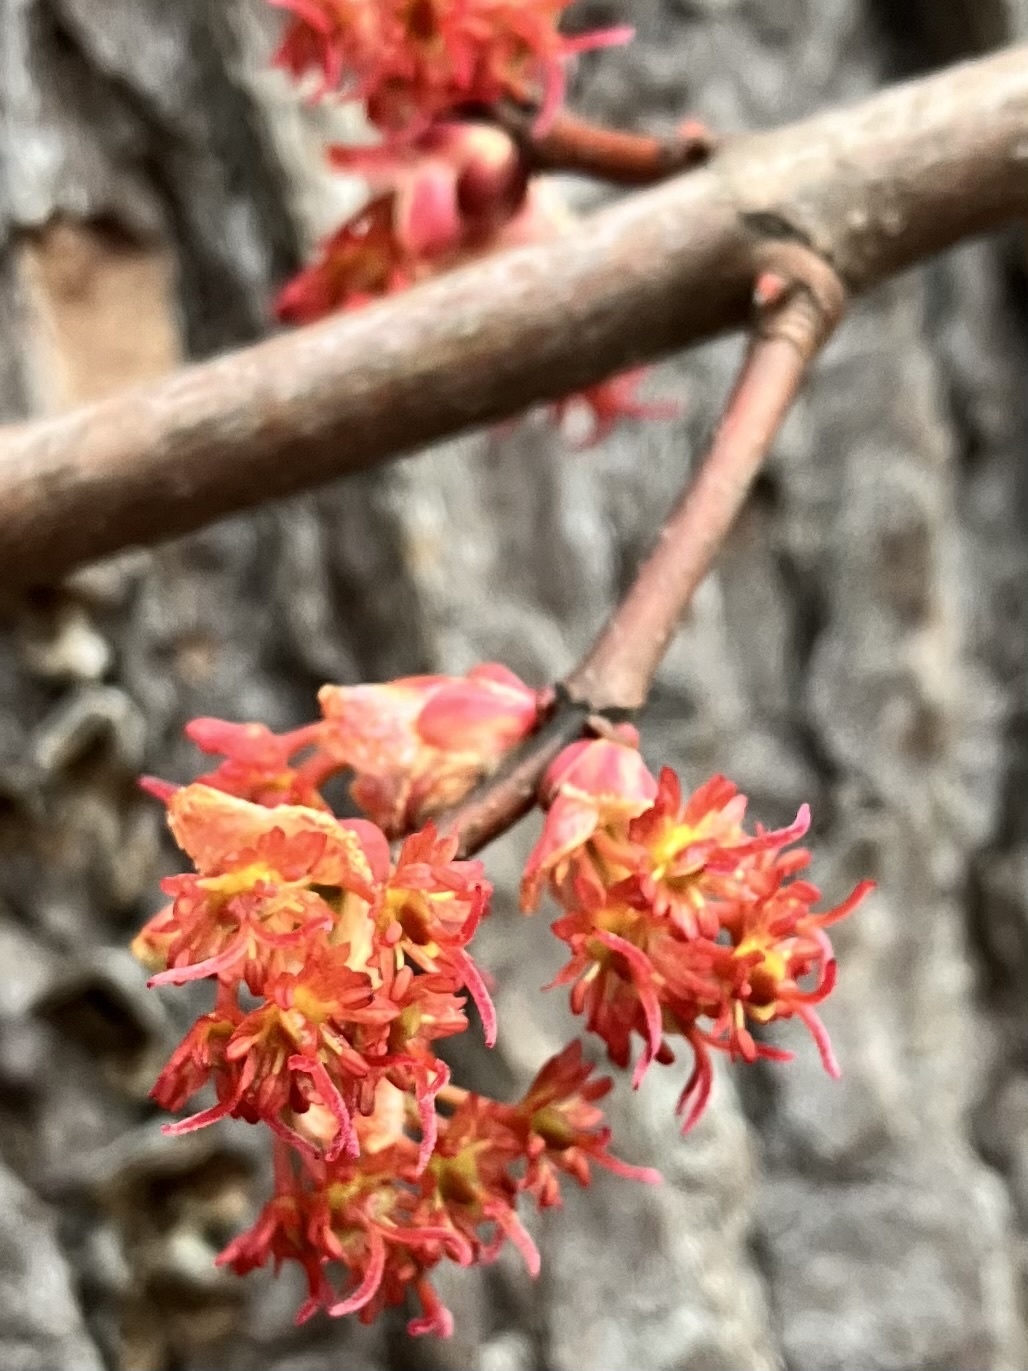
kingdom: Plantae
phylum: Tracheophyta
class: Magnoliopsida
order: Sapindales
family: Sapindaceae
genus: Acer
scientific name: Acer rubrum
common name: Red maple
